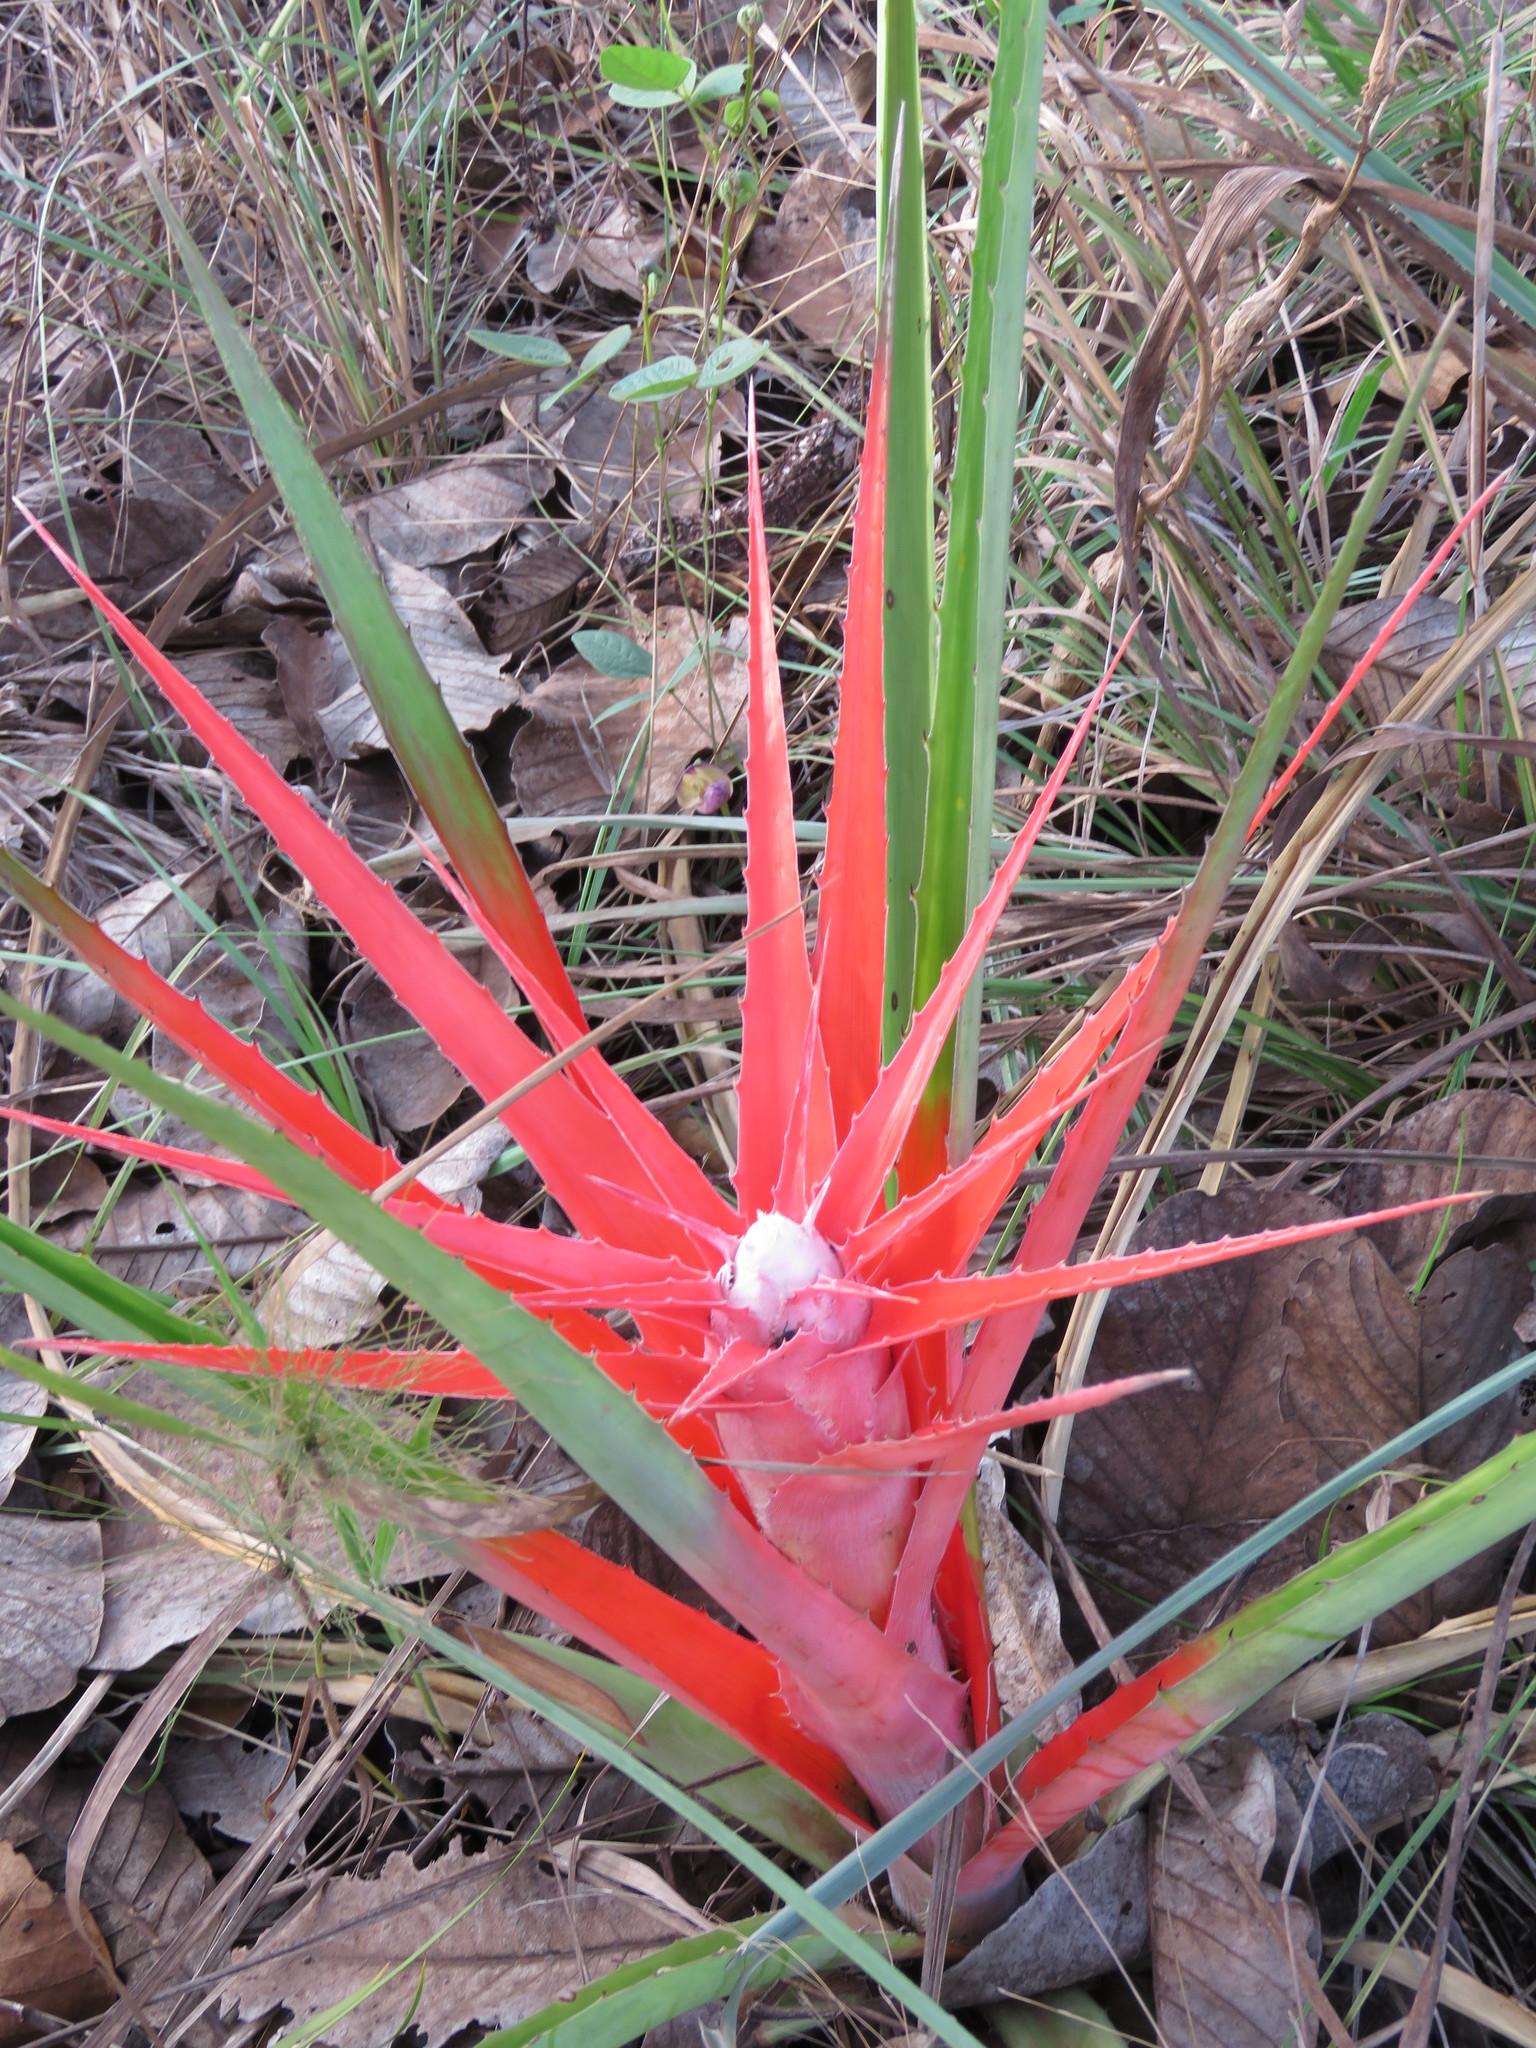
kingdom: Plantae
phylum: Tracheophyta
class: Liliopsida
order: Poales
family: Bromeliaceae
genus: Bromelia
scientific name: Bromelia serra
